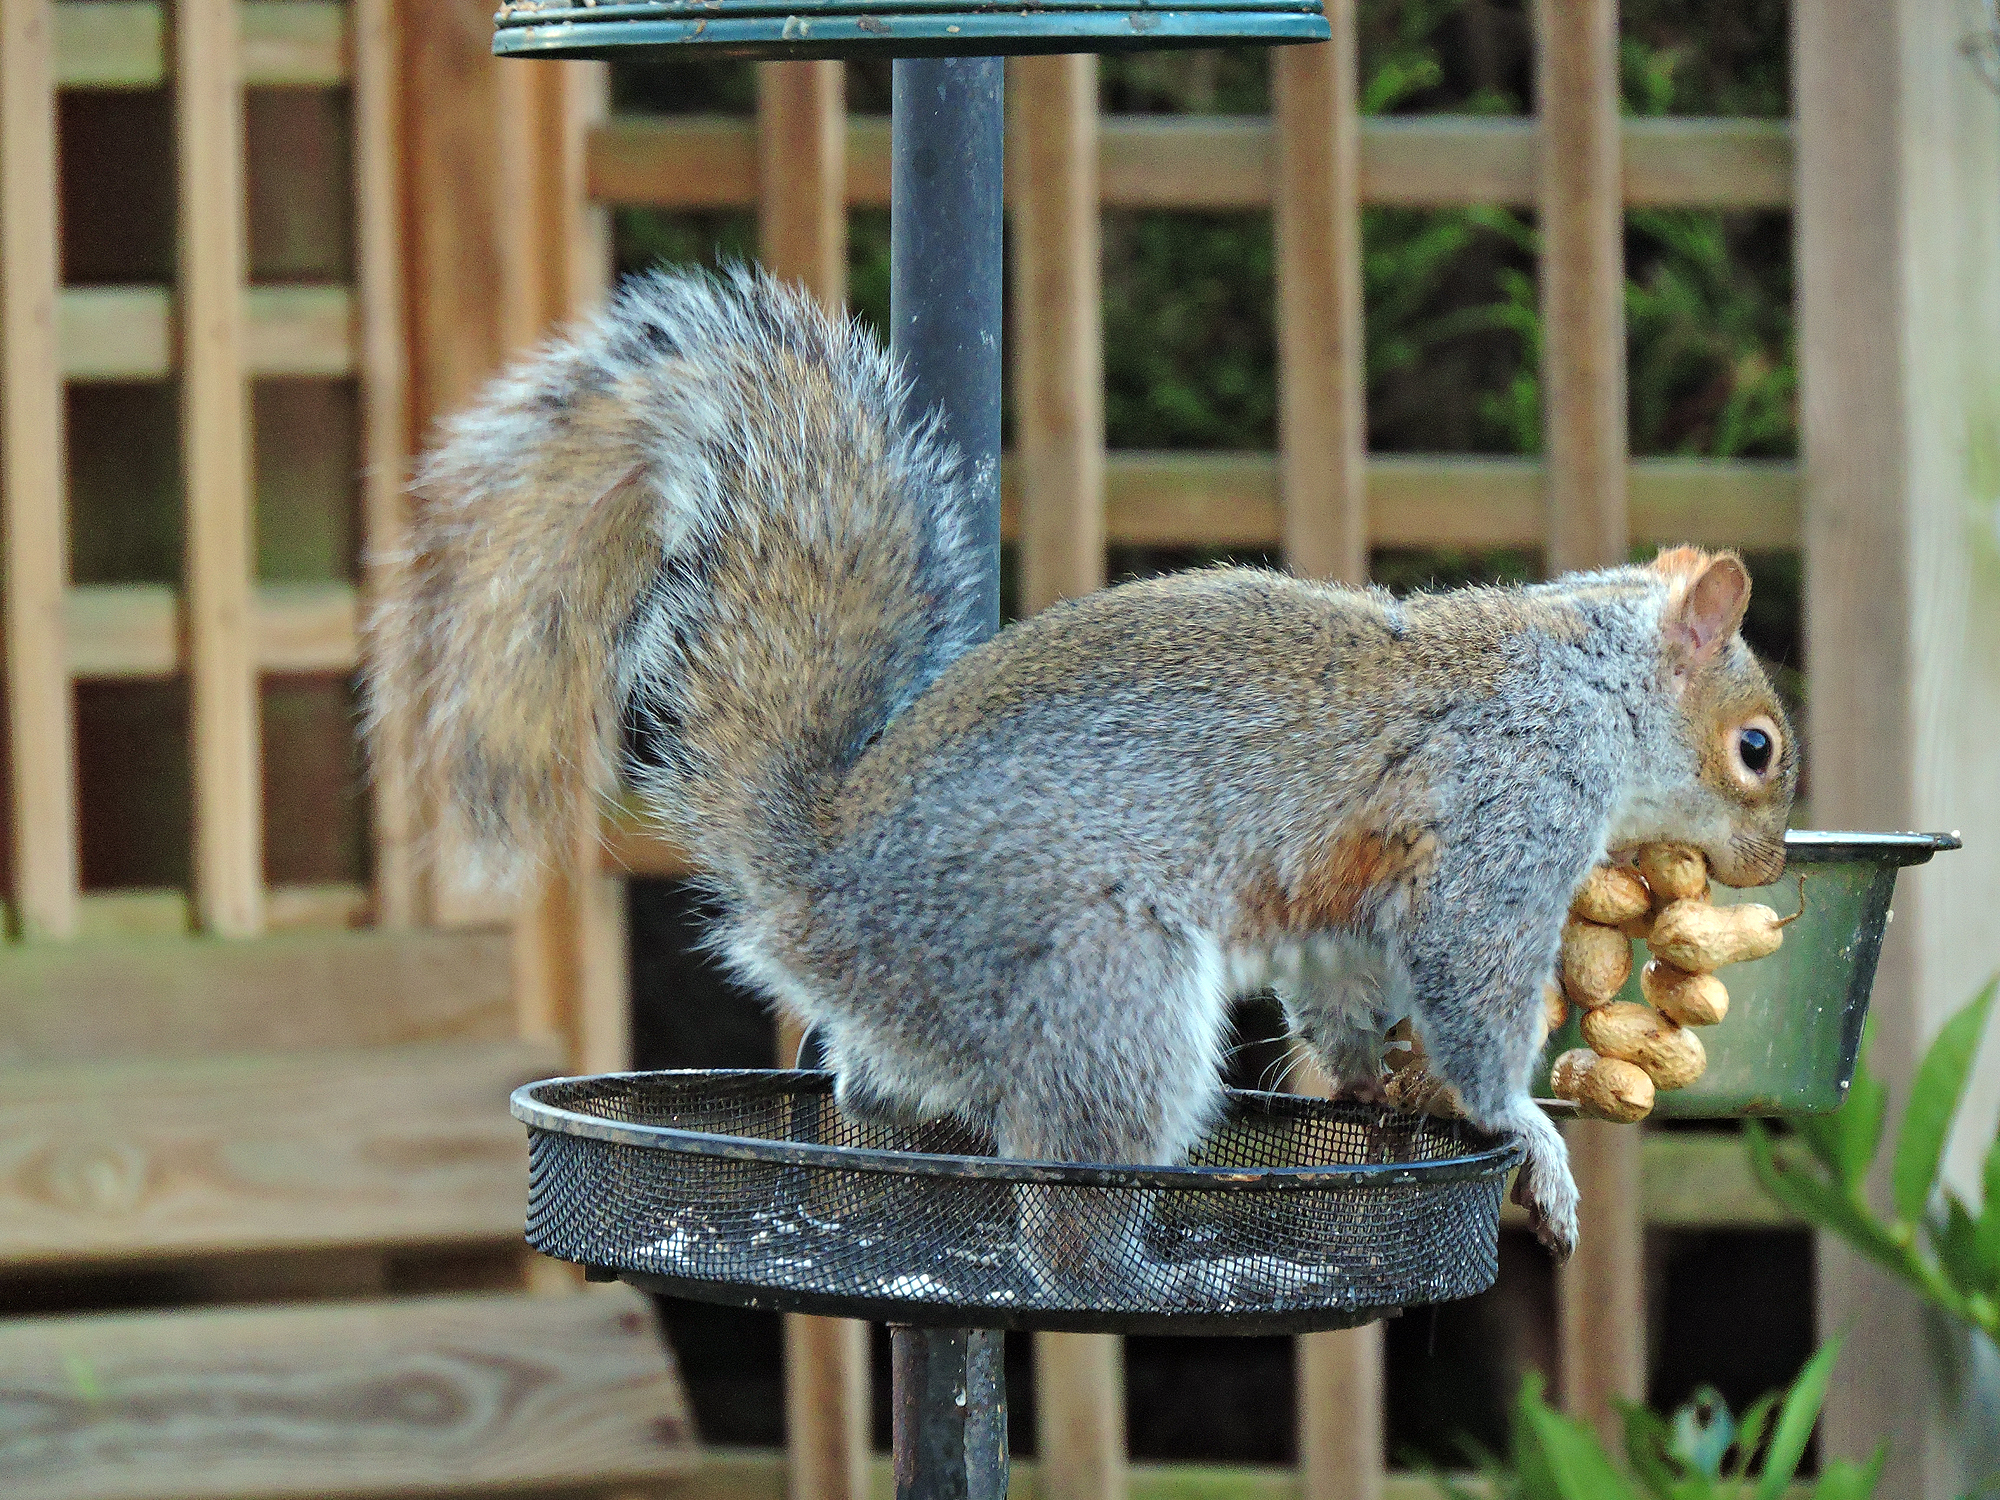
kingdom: Animalia
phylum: Chordata
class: Mammalia
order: Rodentia
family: Sciuridae
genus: Sciurus
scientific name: Sciurus carolinensis
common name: Eastern gray squirrel
